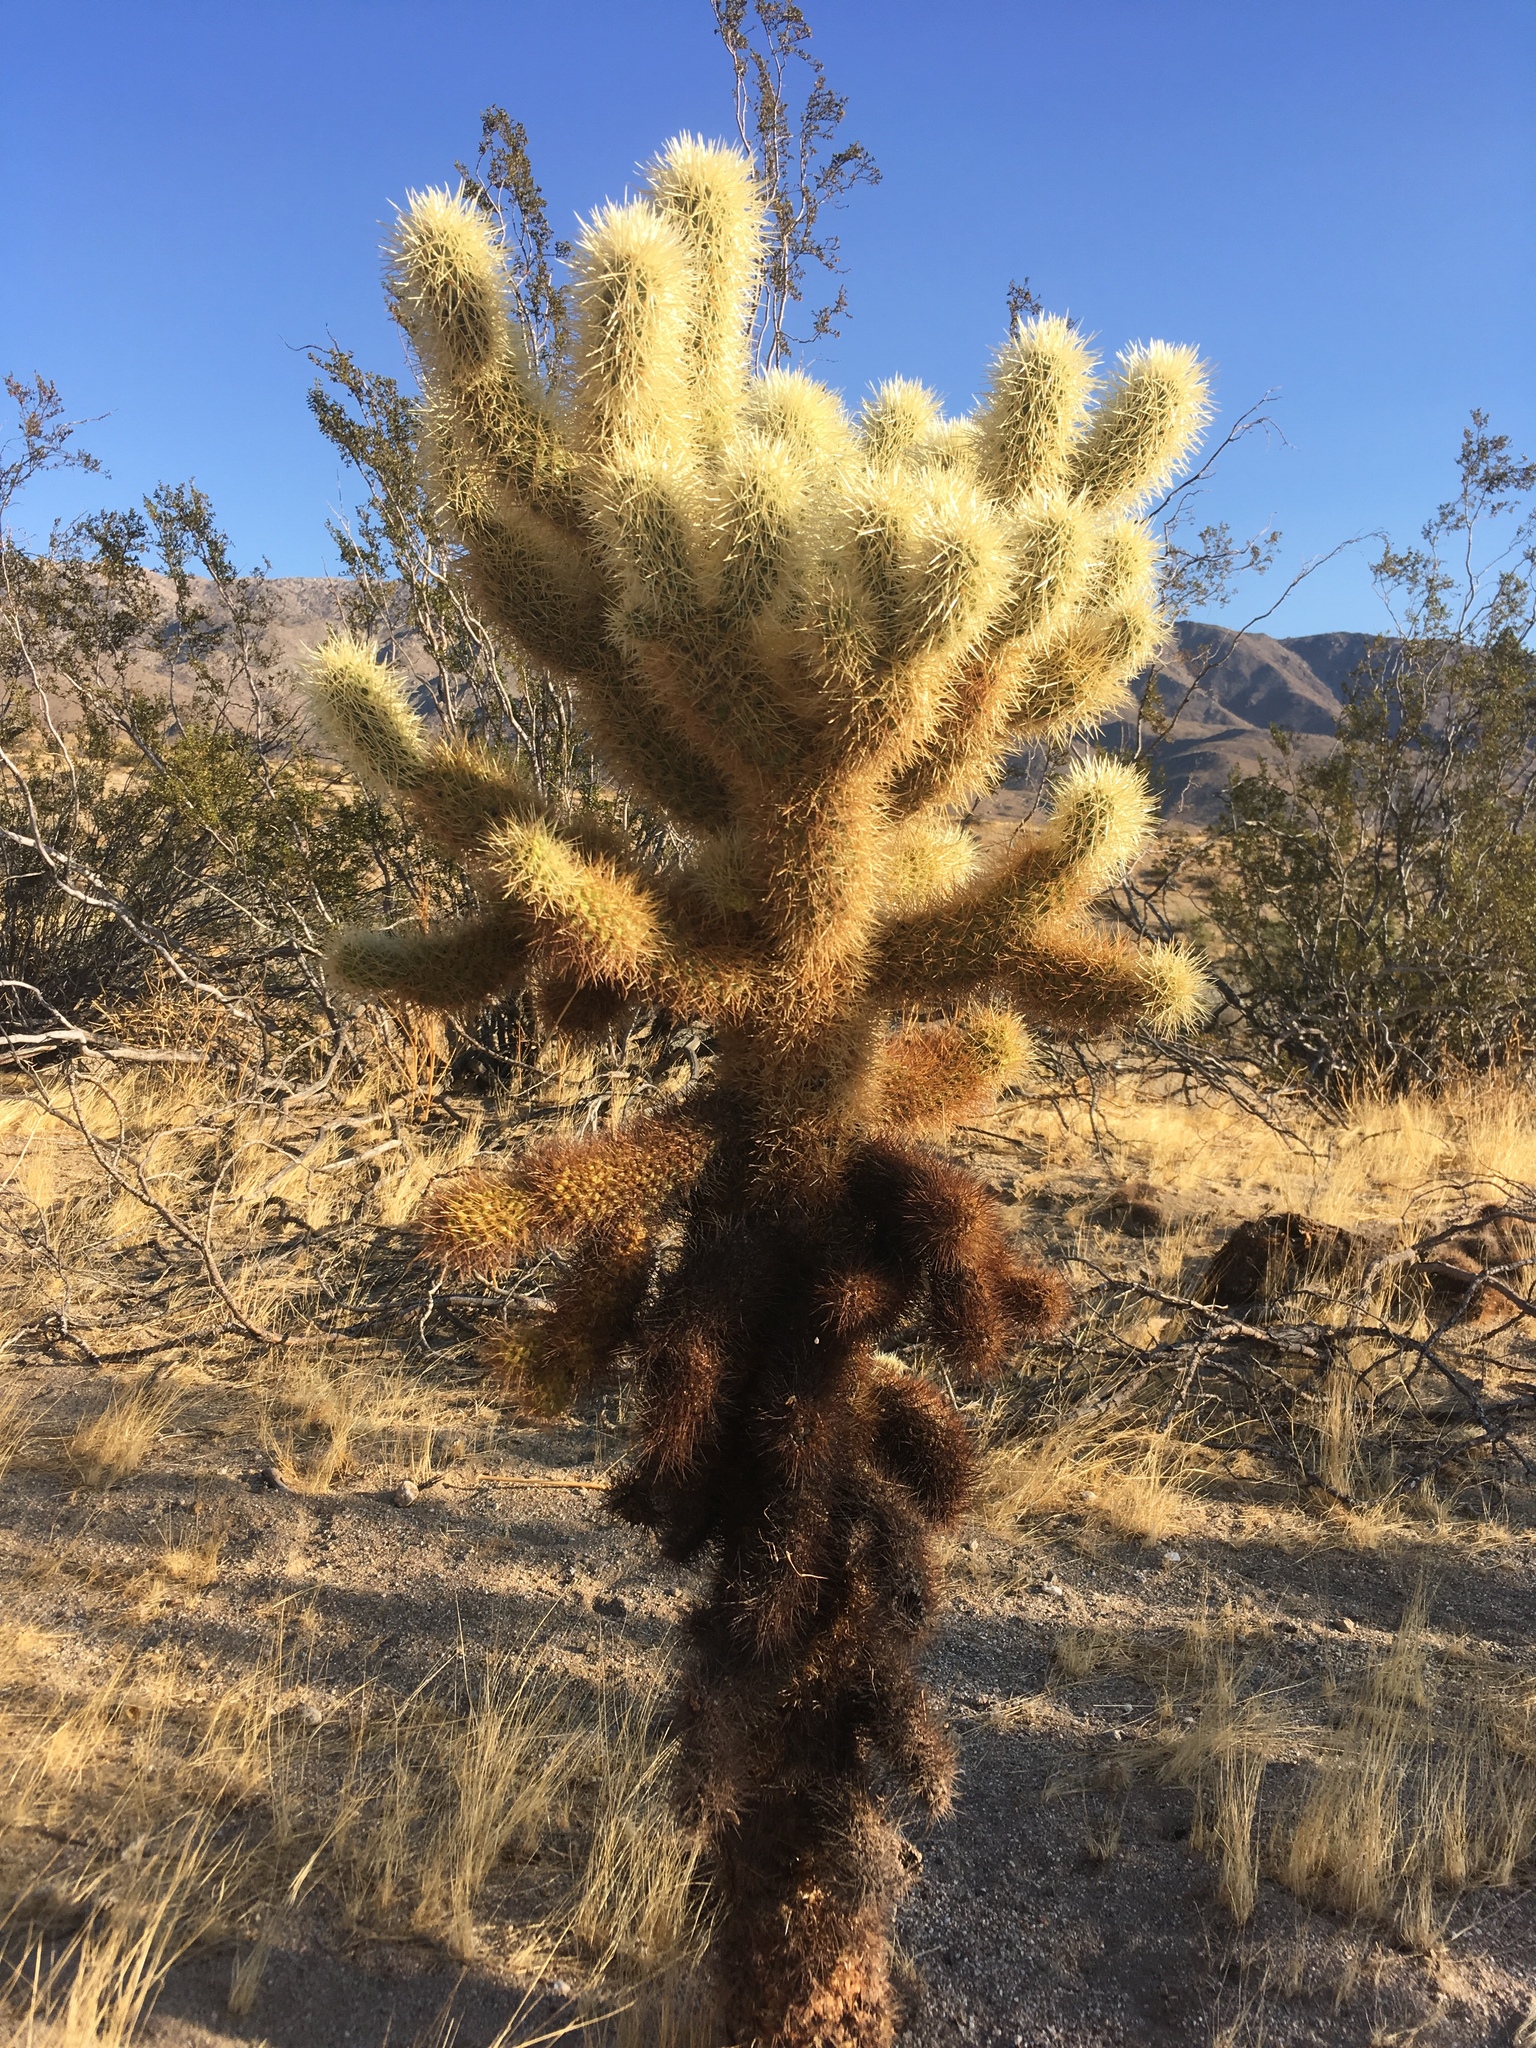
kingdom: Plantae
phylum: Tracheophyta
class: Magnoliopsida
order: Caryophyllales
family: Cactaceae
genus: Cylindropuntia
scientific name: Cylindropuntia fosbergii
